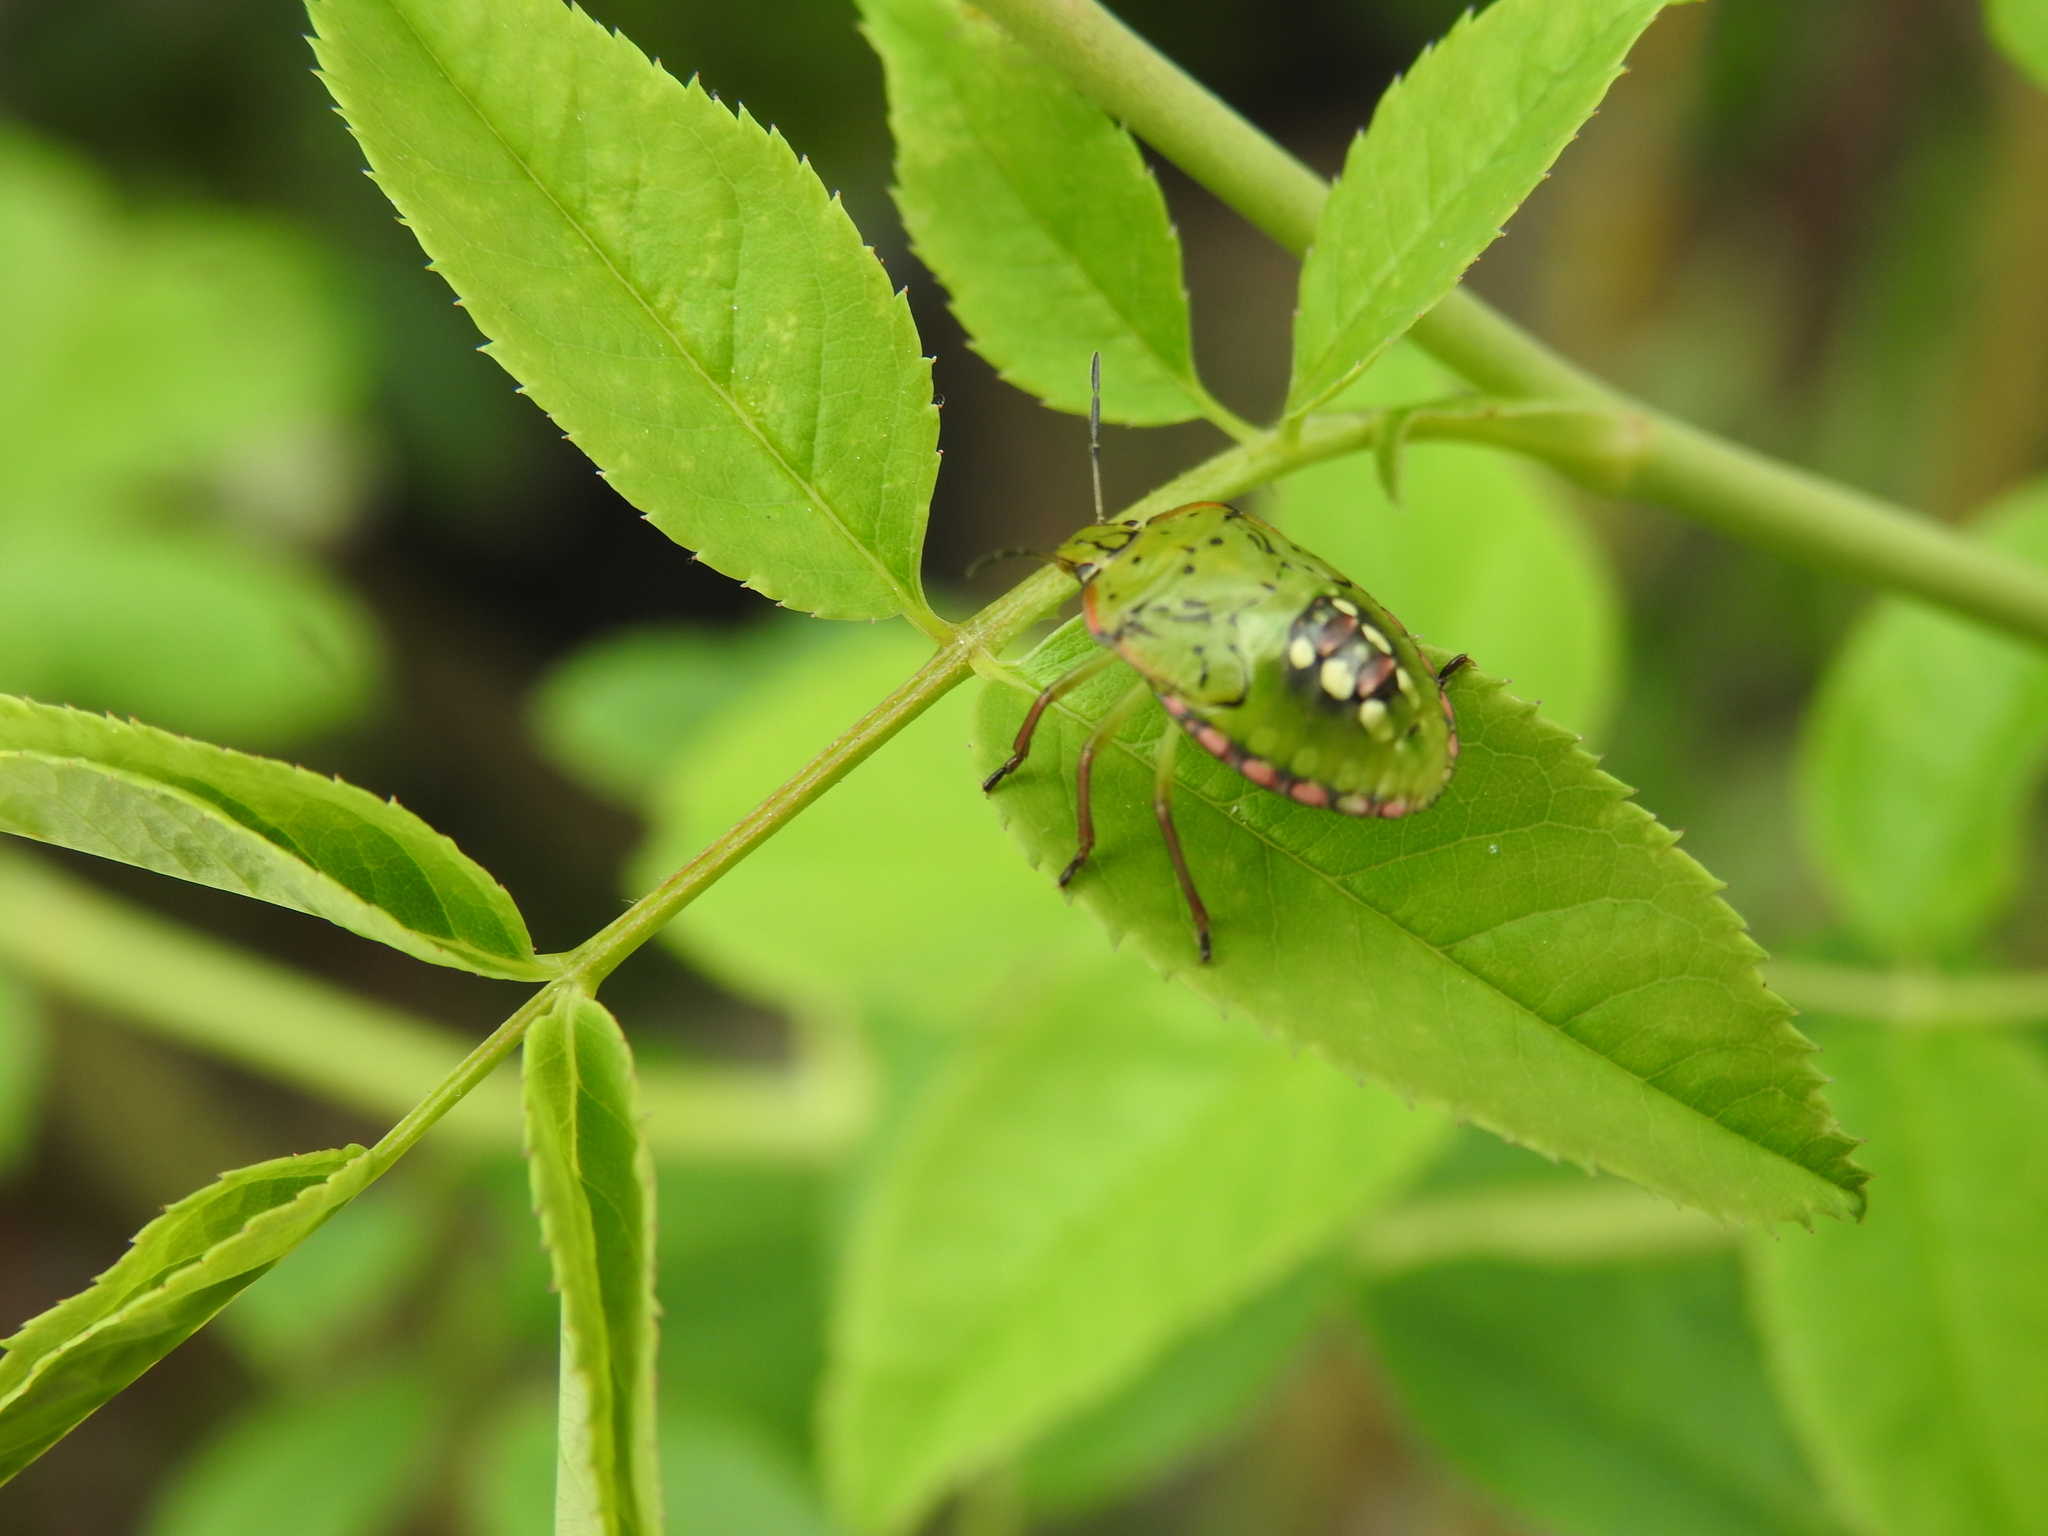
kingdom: Animalia
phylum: Arthropoda
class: Insecta
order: Hemiptera
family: Pentatomidae
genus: Nezara
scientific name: Nezara viridula
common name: Southern green stink bug
